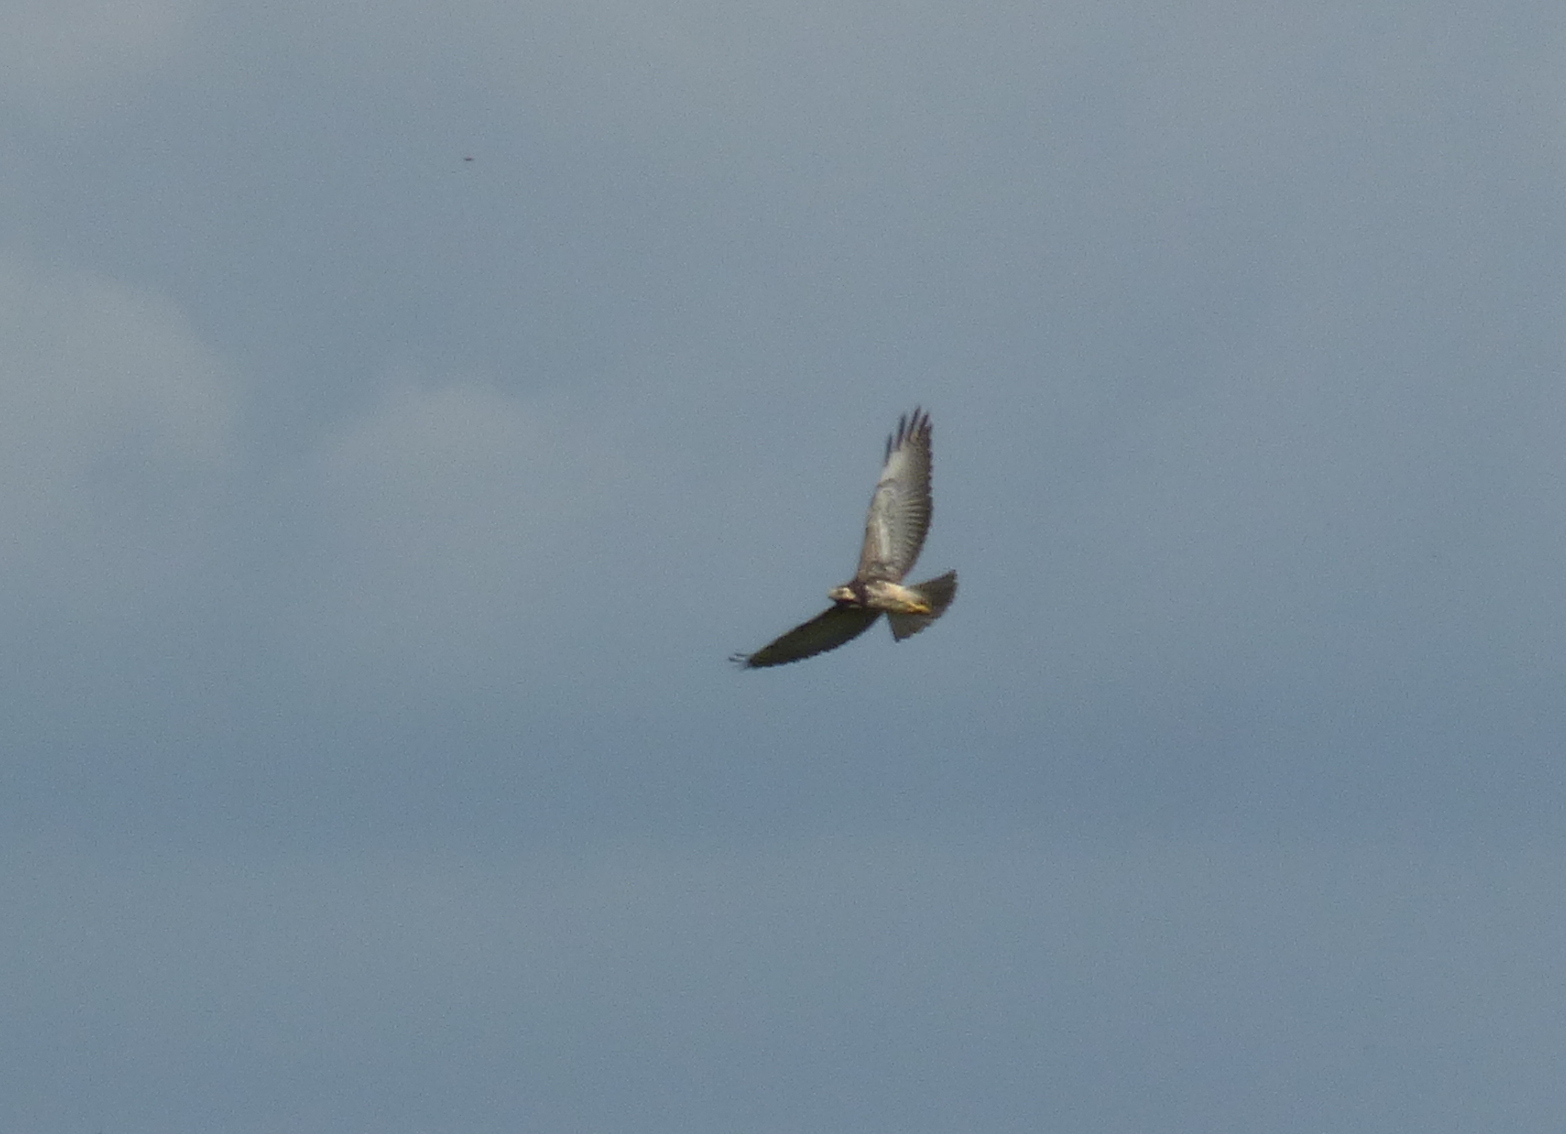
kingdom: Animalia
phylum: Chordata
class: Aves
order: Accipitriformes
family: Accipitridae
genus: Buteo
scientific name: Buteo albicaudatus
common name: White-tailed hawk
